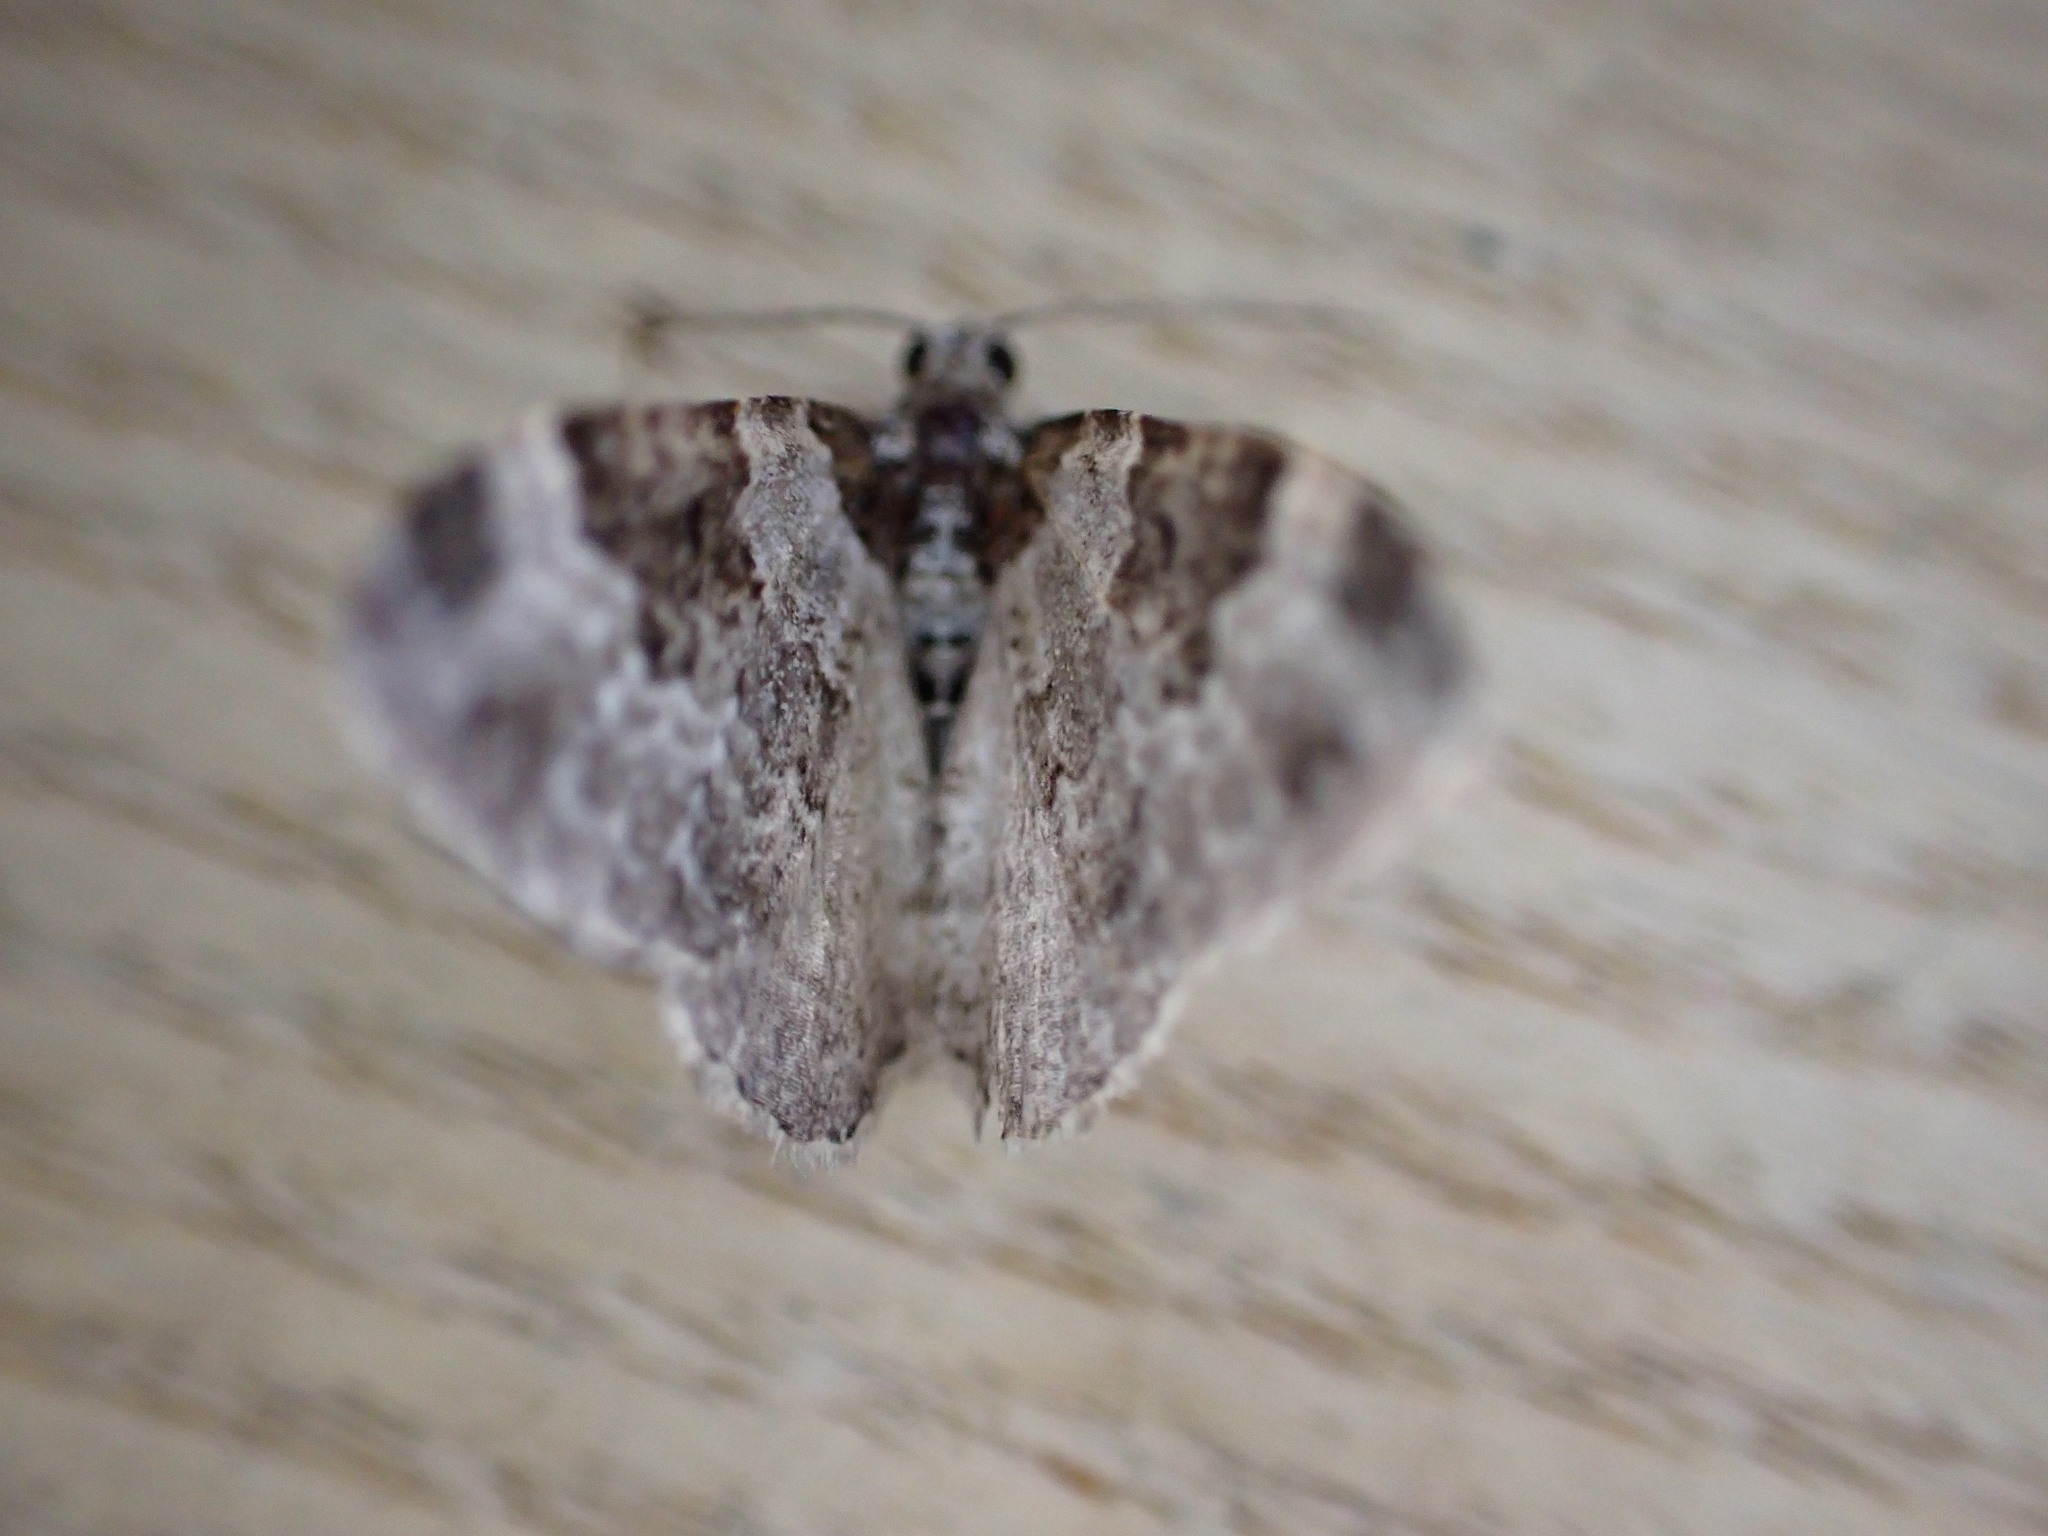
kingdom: Animalia
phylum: Arthropoda
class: Insecta
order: Lepidoptera
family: Geometridae
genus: Xanthorhoe
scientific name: Xanthorhoe fluctuata
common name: Garden carpet
